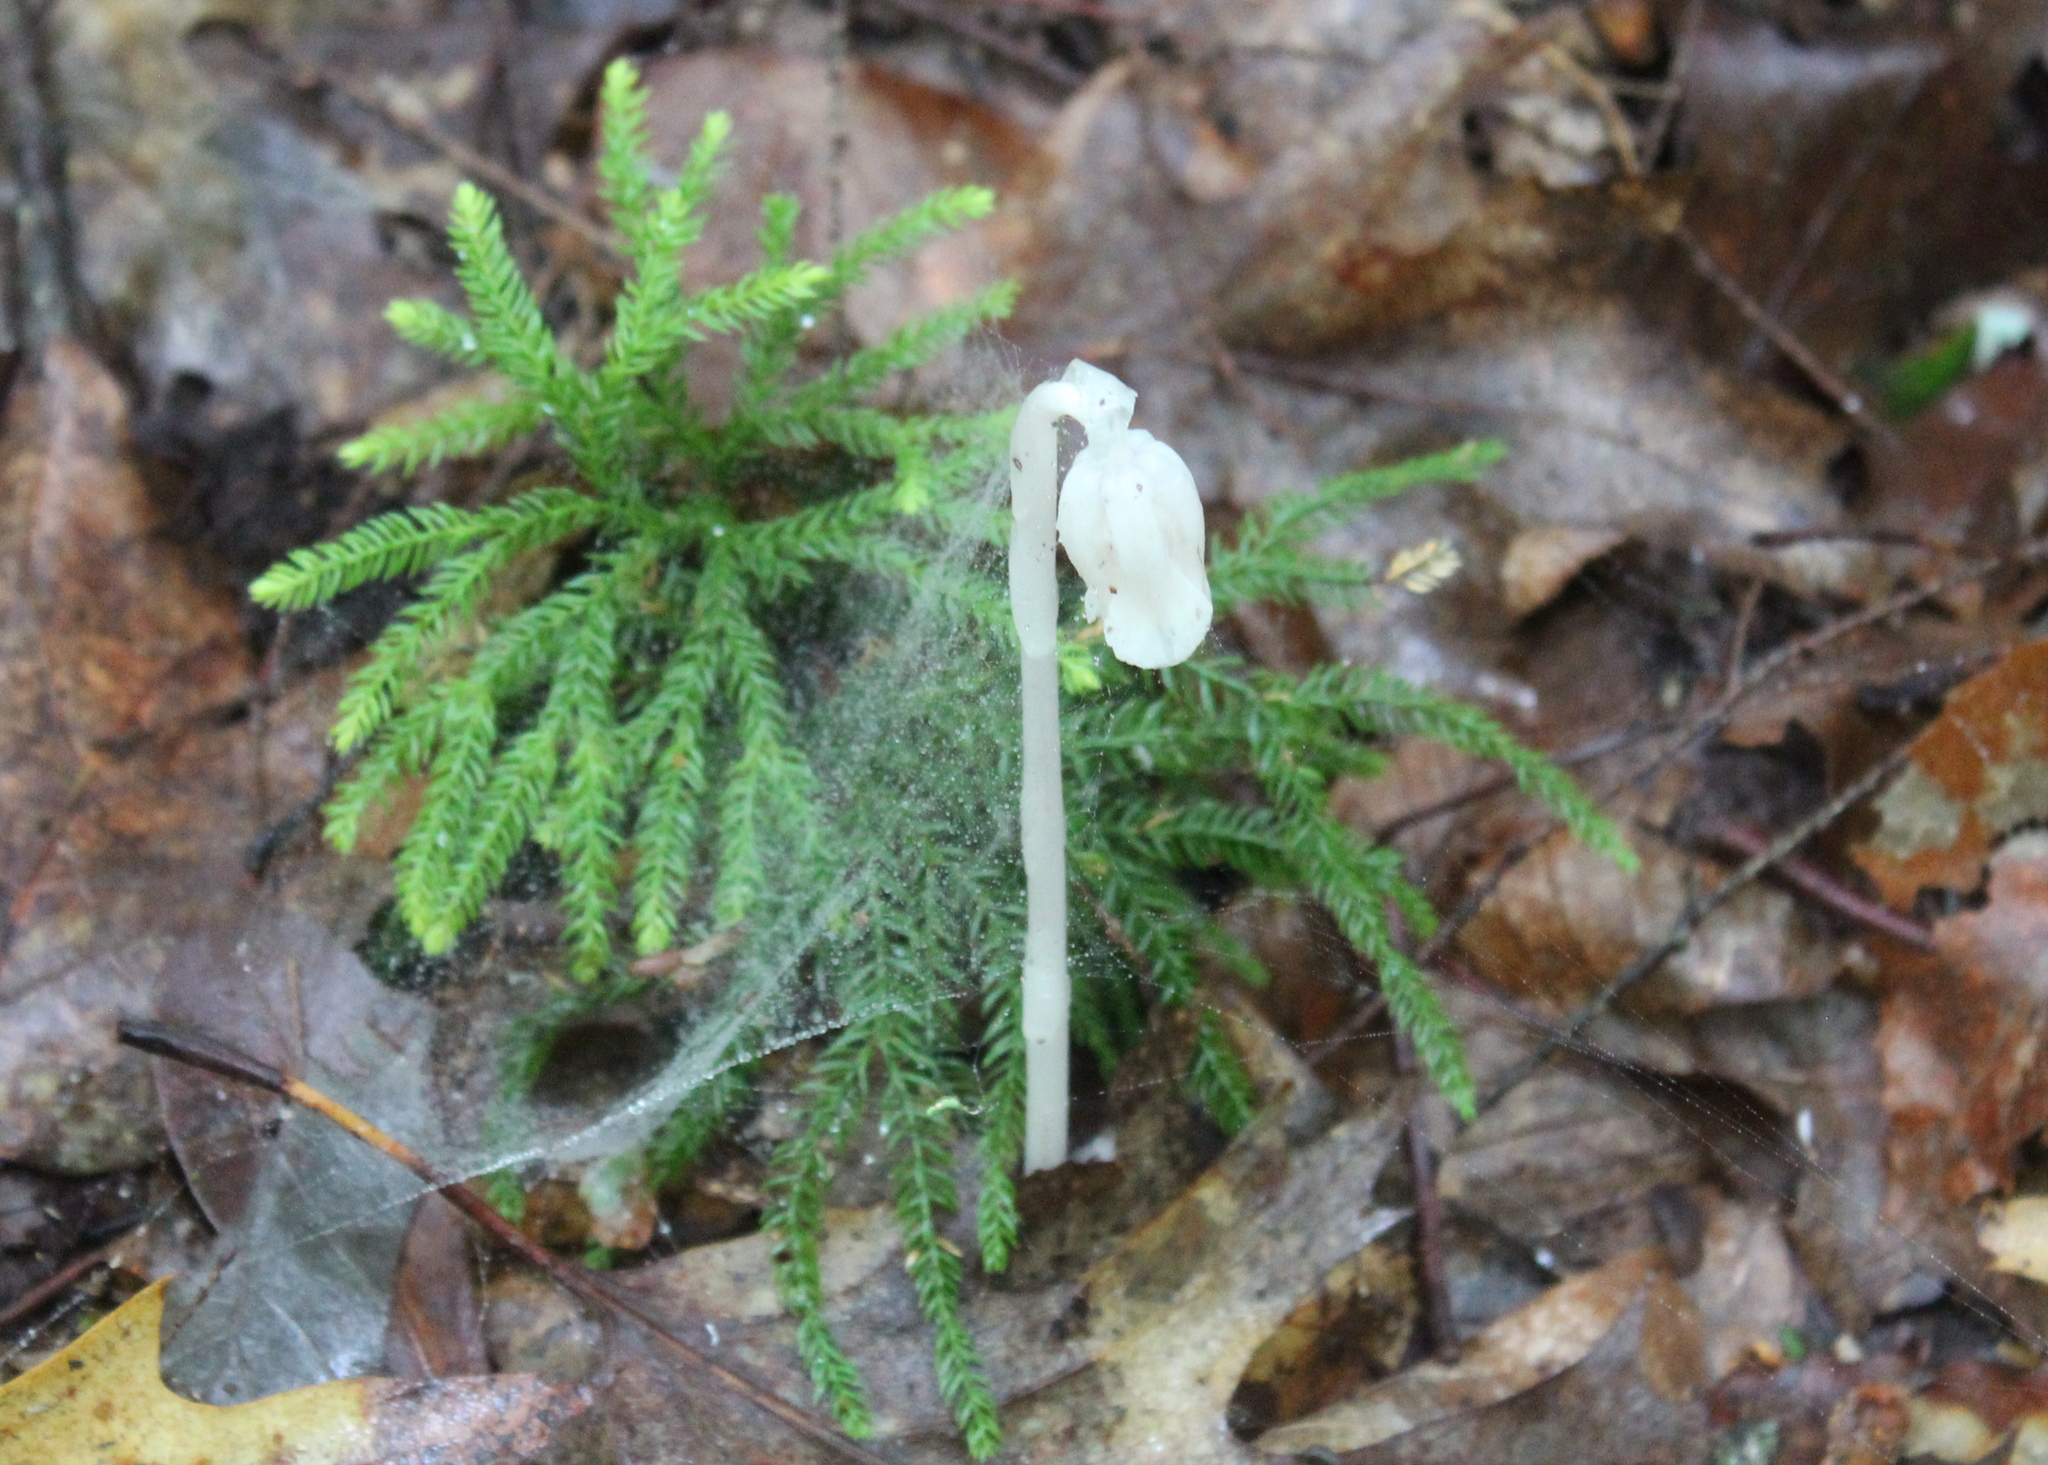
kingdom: Plantae
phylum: Tracheophyta
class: Magnoliopsida
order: Ericales
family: Ericaceae
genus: Monotropa
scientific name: Monotropa uniflora
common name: Convulsion root
